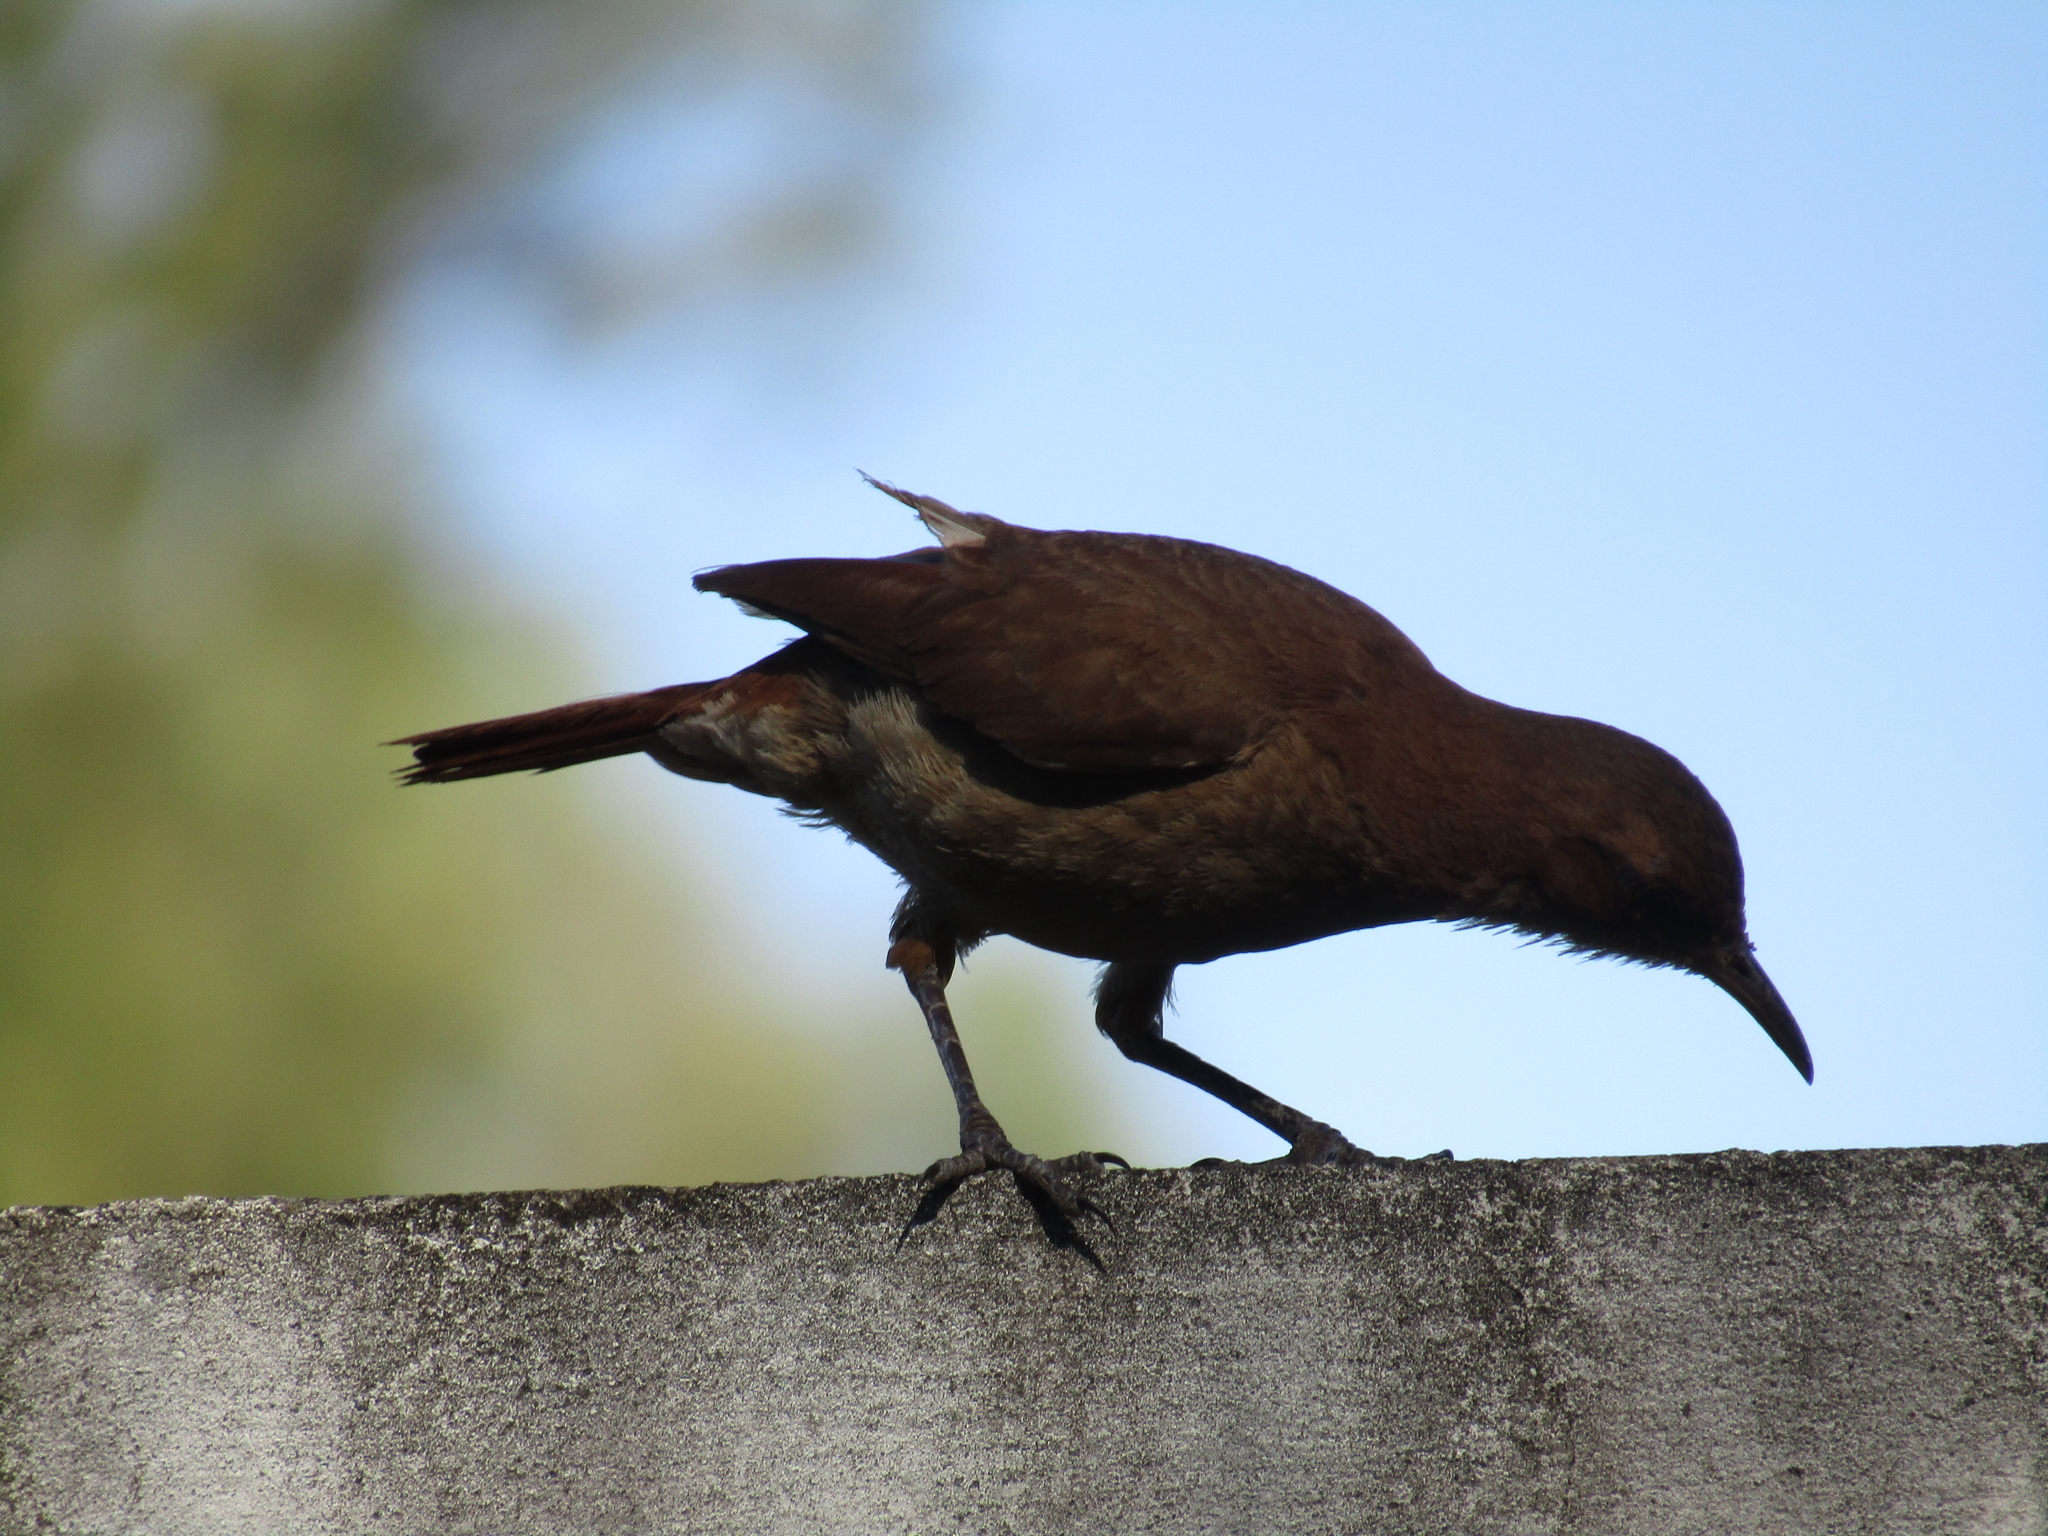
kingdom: Animalia
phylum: Chordata
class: Aves
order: Passeriformes
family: Furnariidae
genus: Furnarius
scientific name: Furnarius rufus
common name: Rufous hornero
